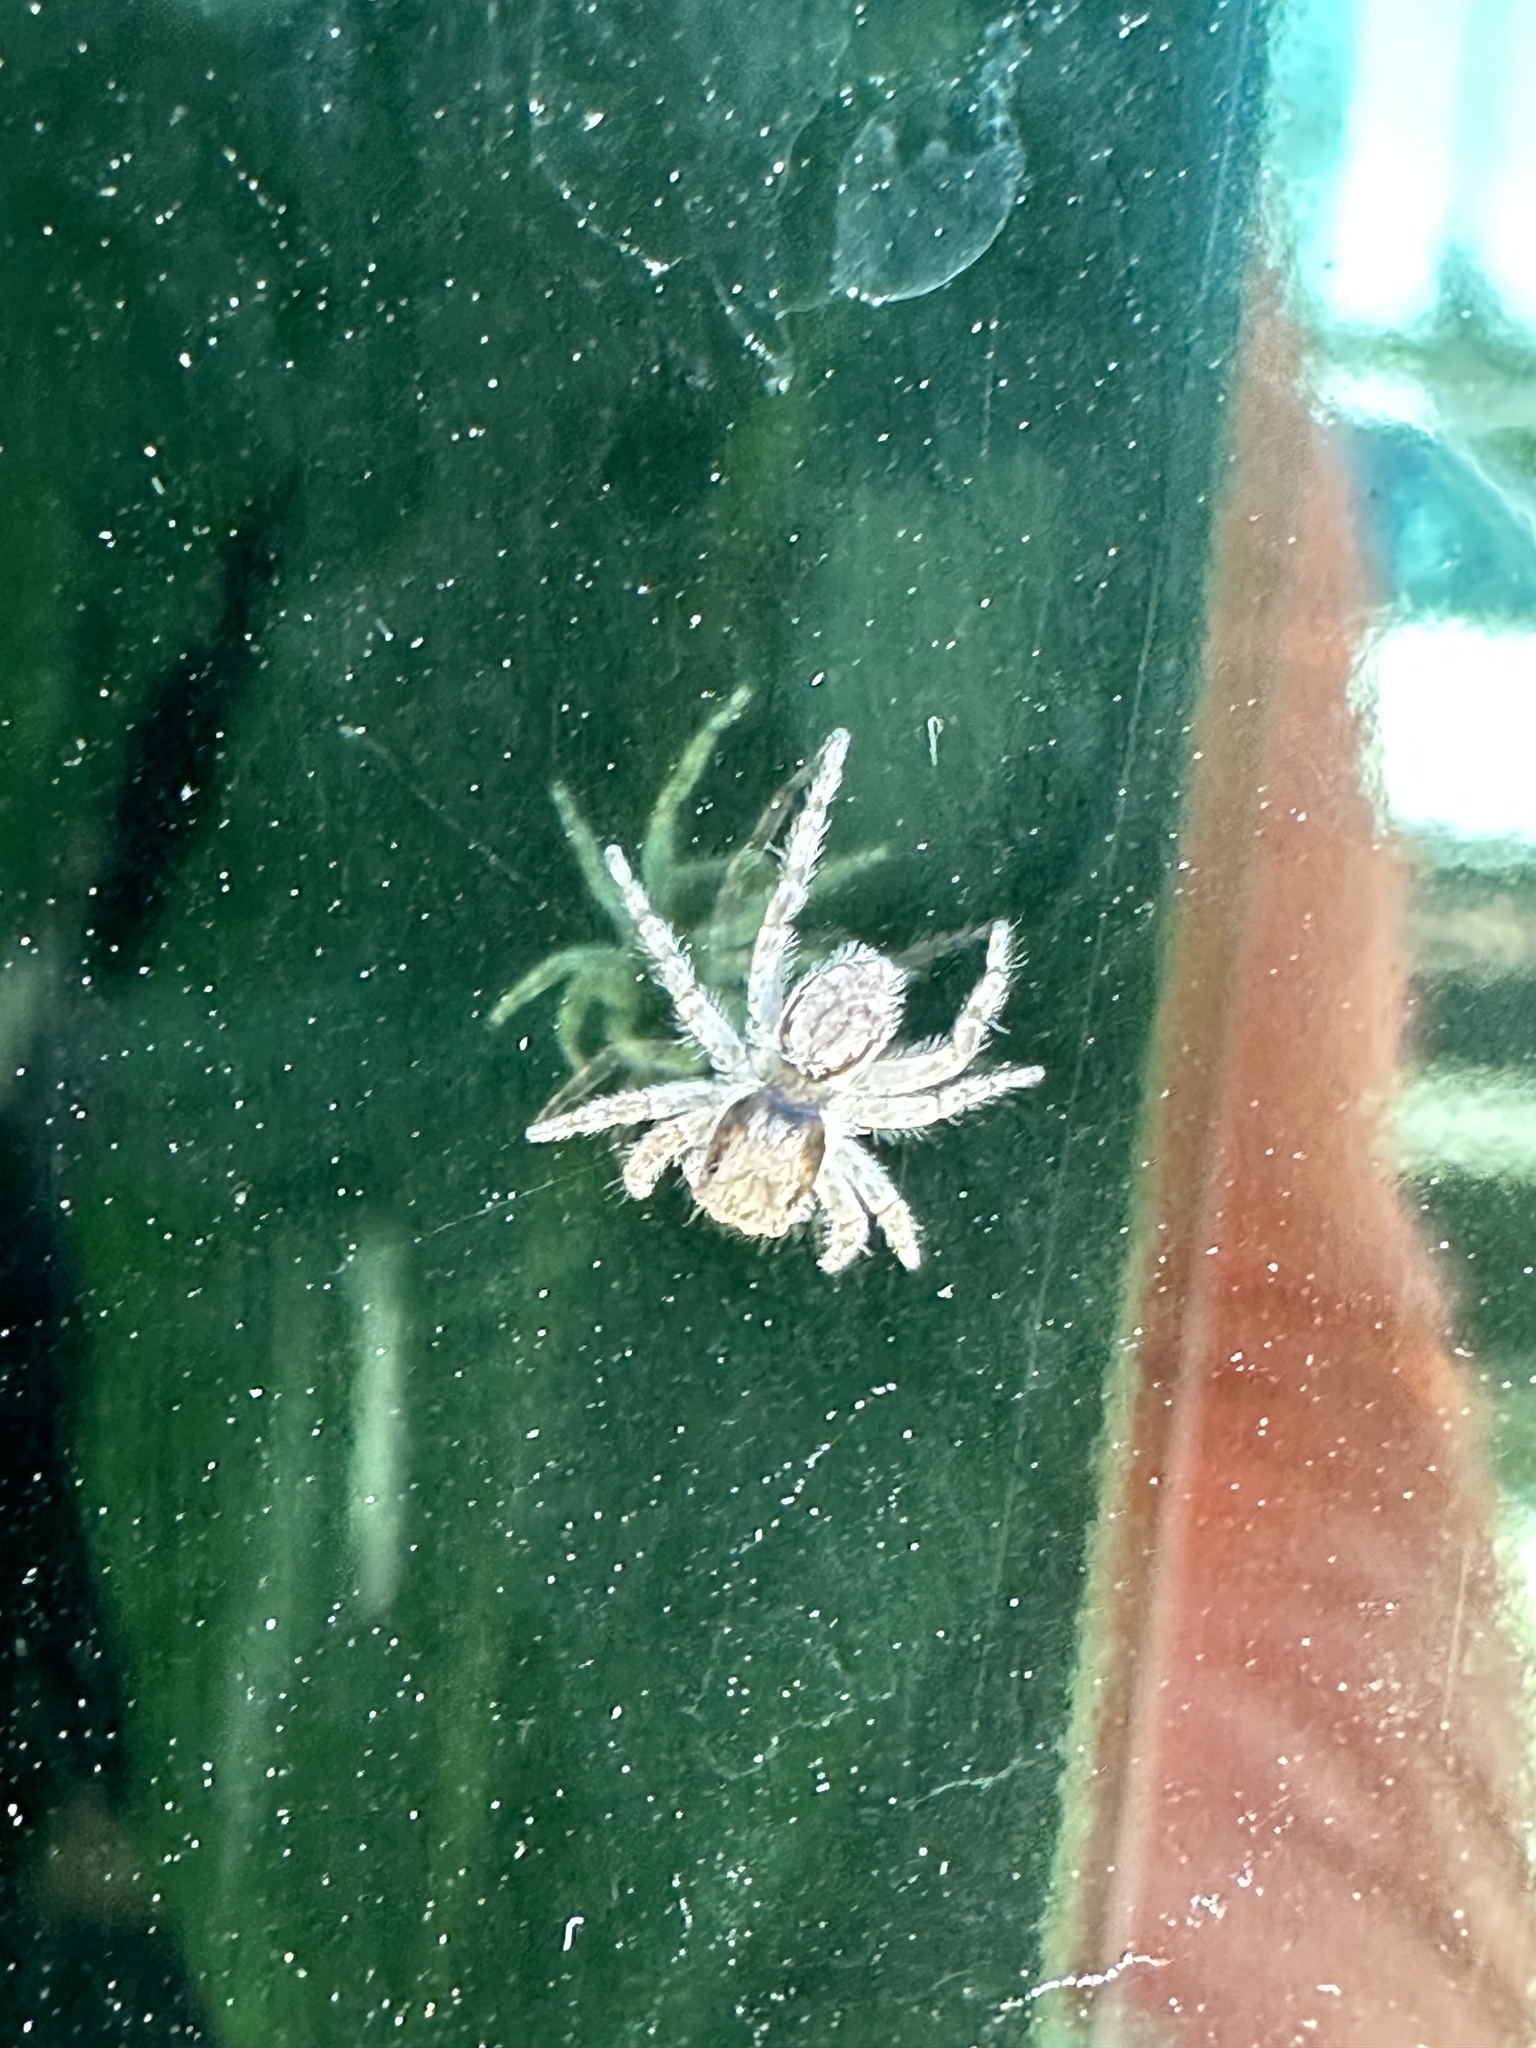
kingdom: Animalia
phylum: Arthropoda
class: Arachnida
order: Araneae
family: Salticidae
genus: Menemerus
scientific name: Menemerus bivittatus
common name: Gray wall jumper
